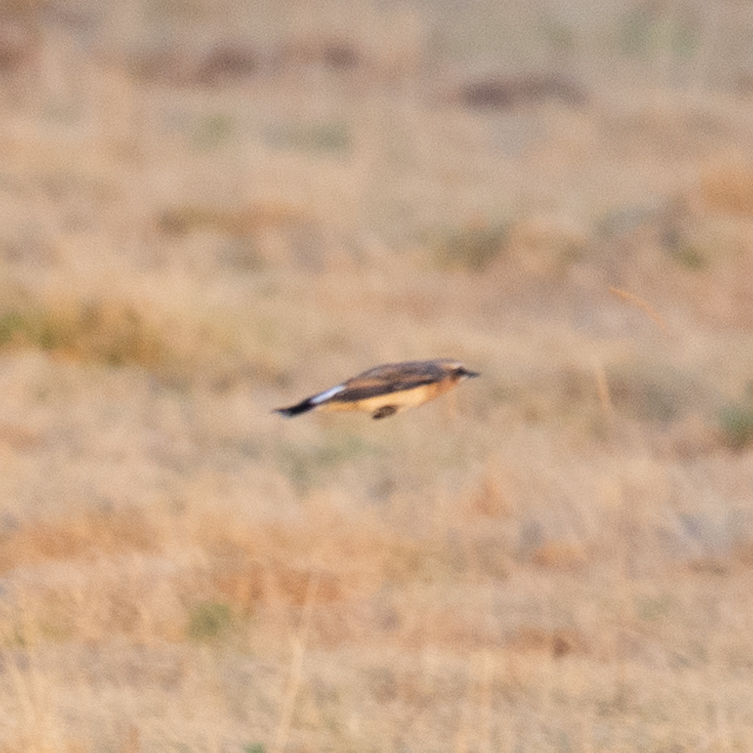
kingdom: Animalia
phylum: Chordata
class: Aves
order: Passeriformes
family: Muscicapidae
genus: Oenanthe
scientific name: Oenanthe oenanthe
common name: Northern wheatear
